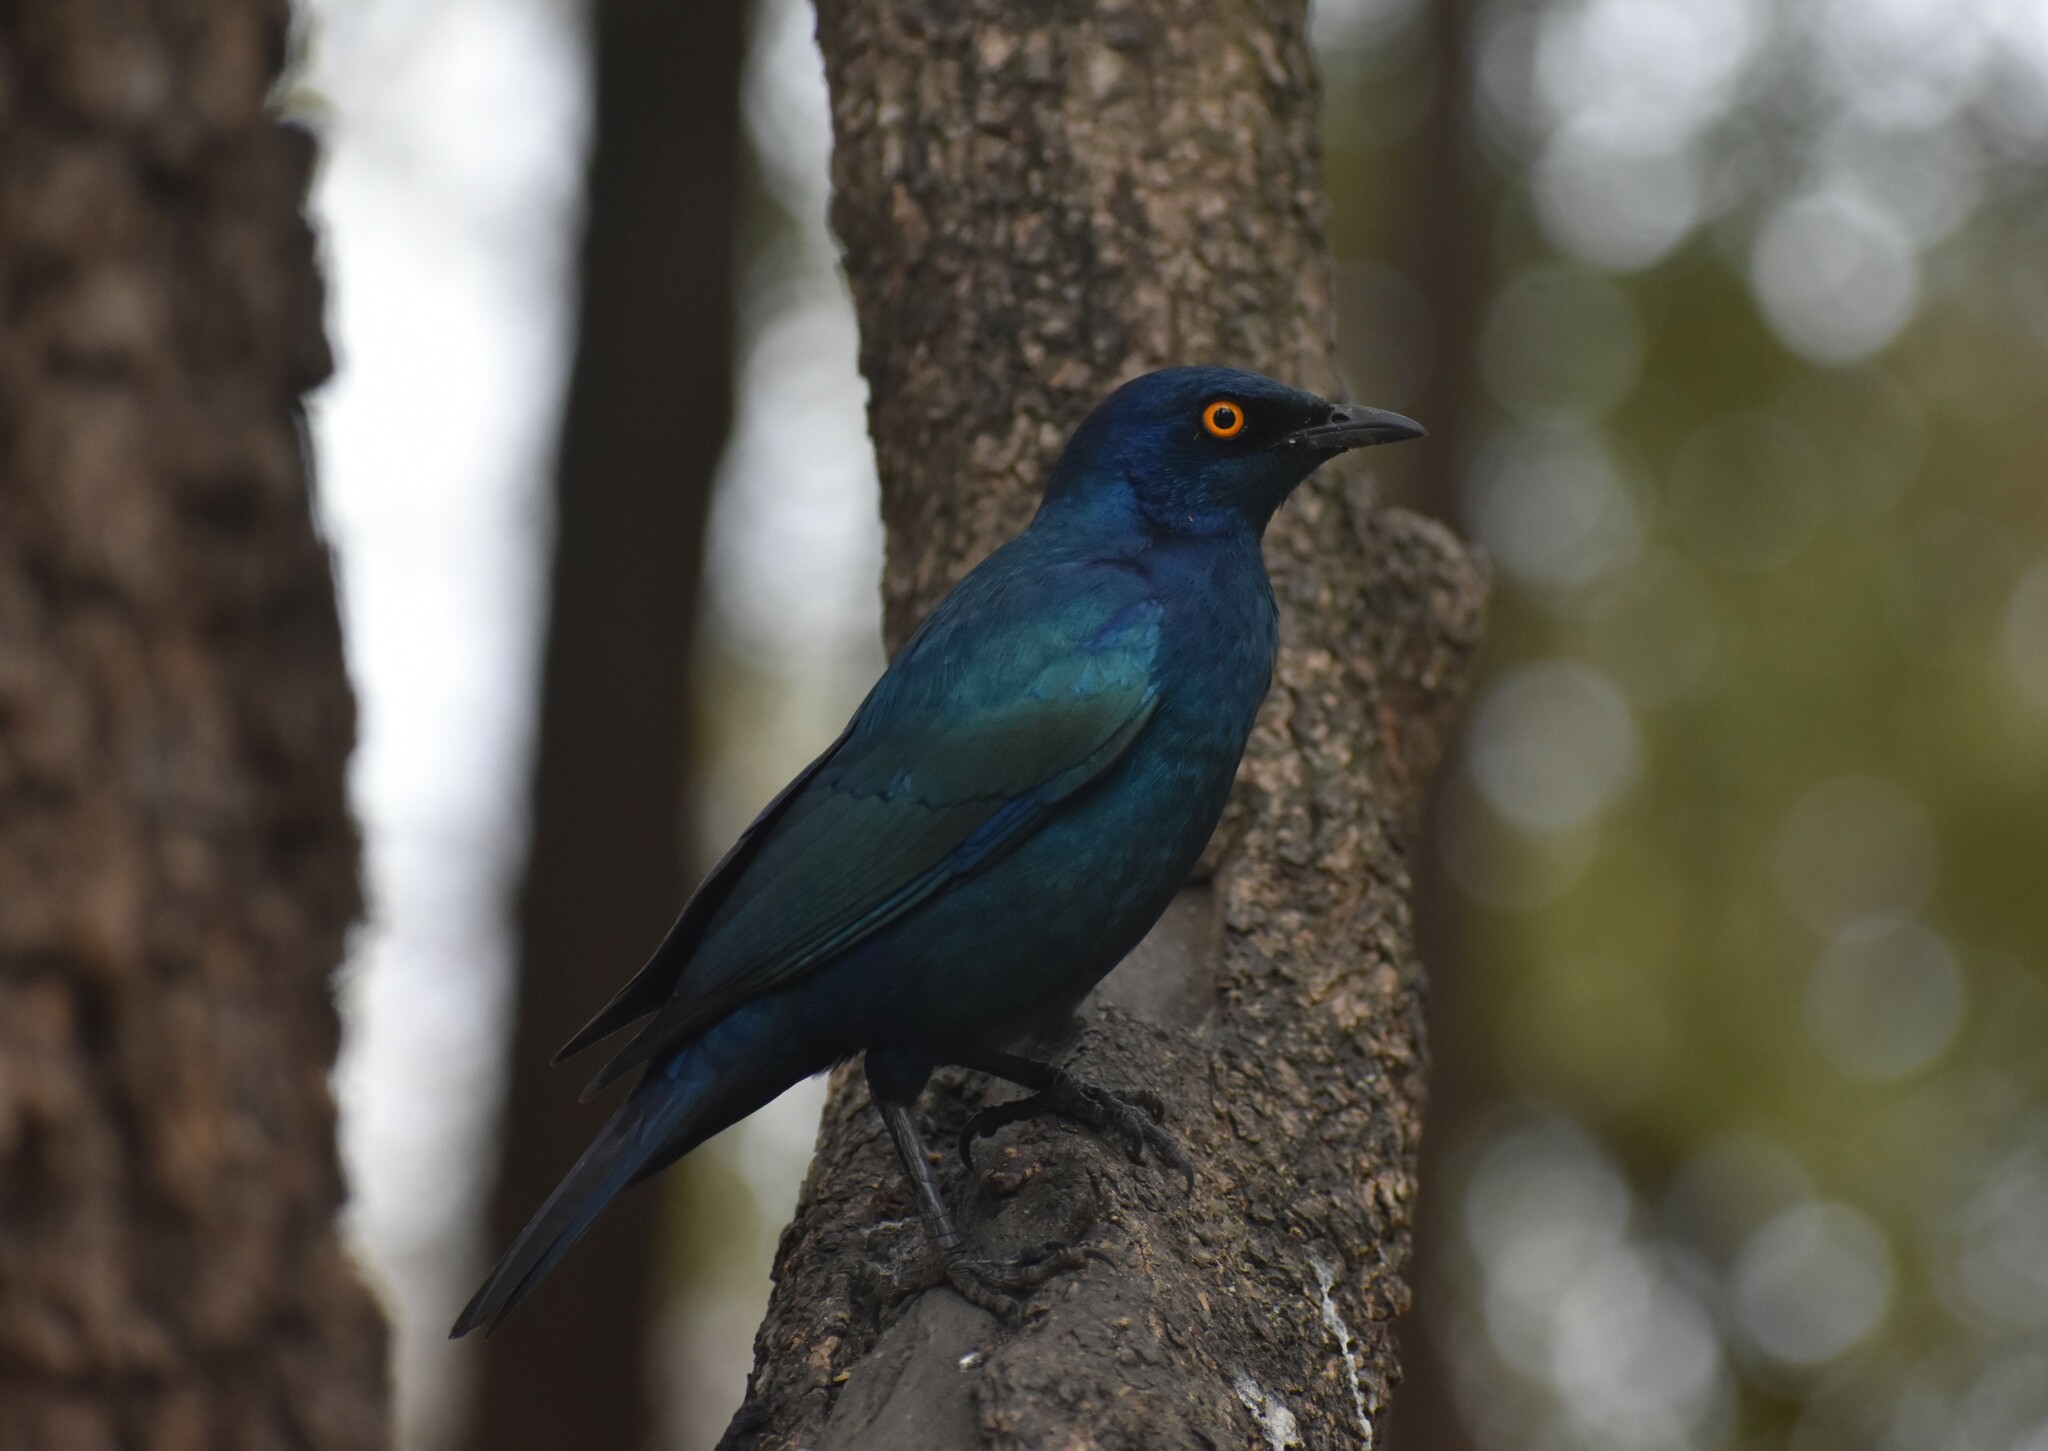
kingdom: Animalia
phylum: Chordata
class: Aves
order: Passeriformes
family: Sturnidae
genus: Lamprotornis
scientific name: Lamprotornis nitens
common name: Cape starling
